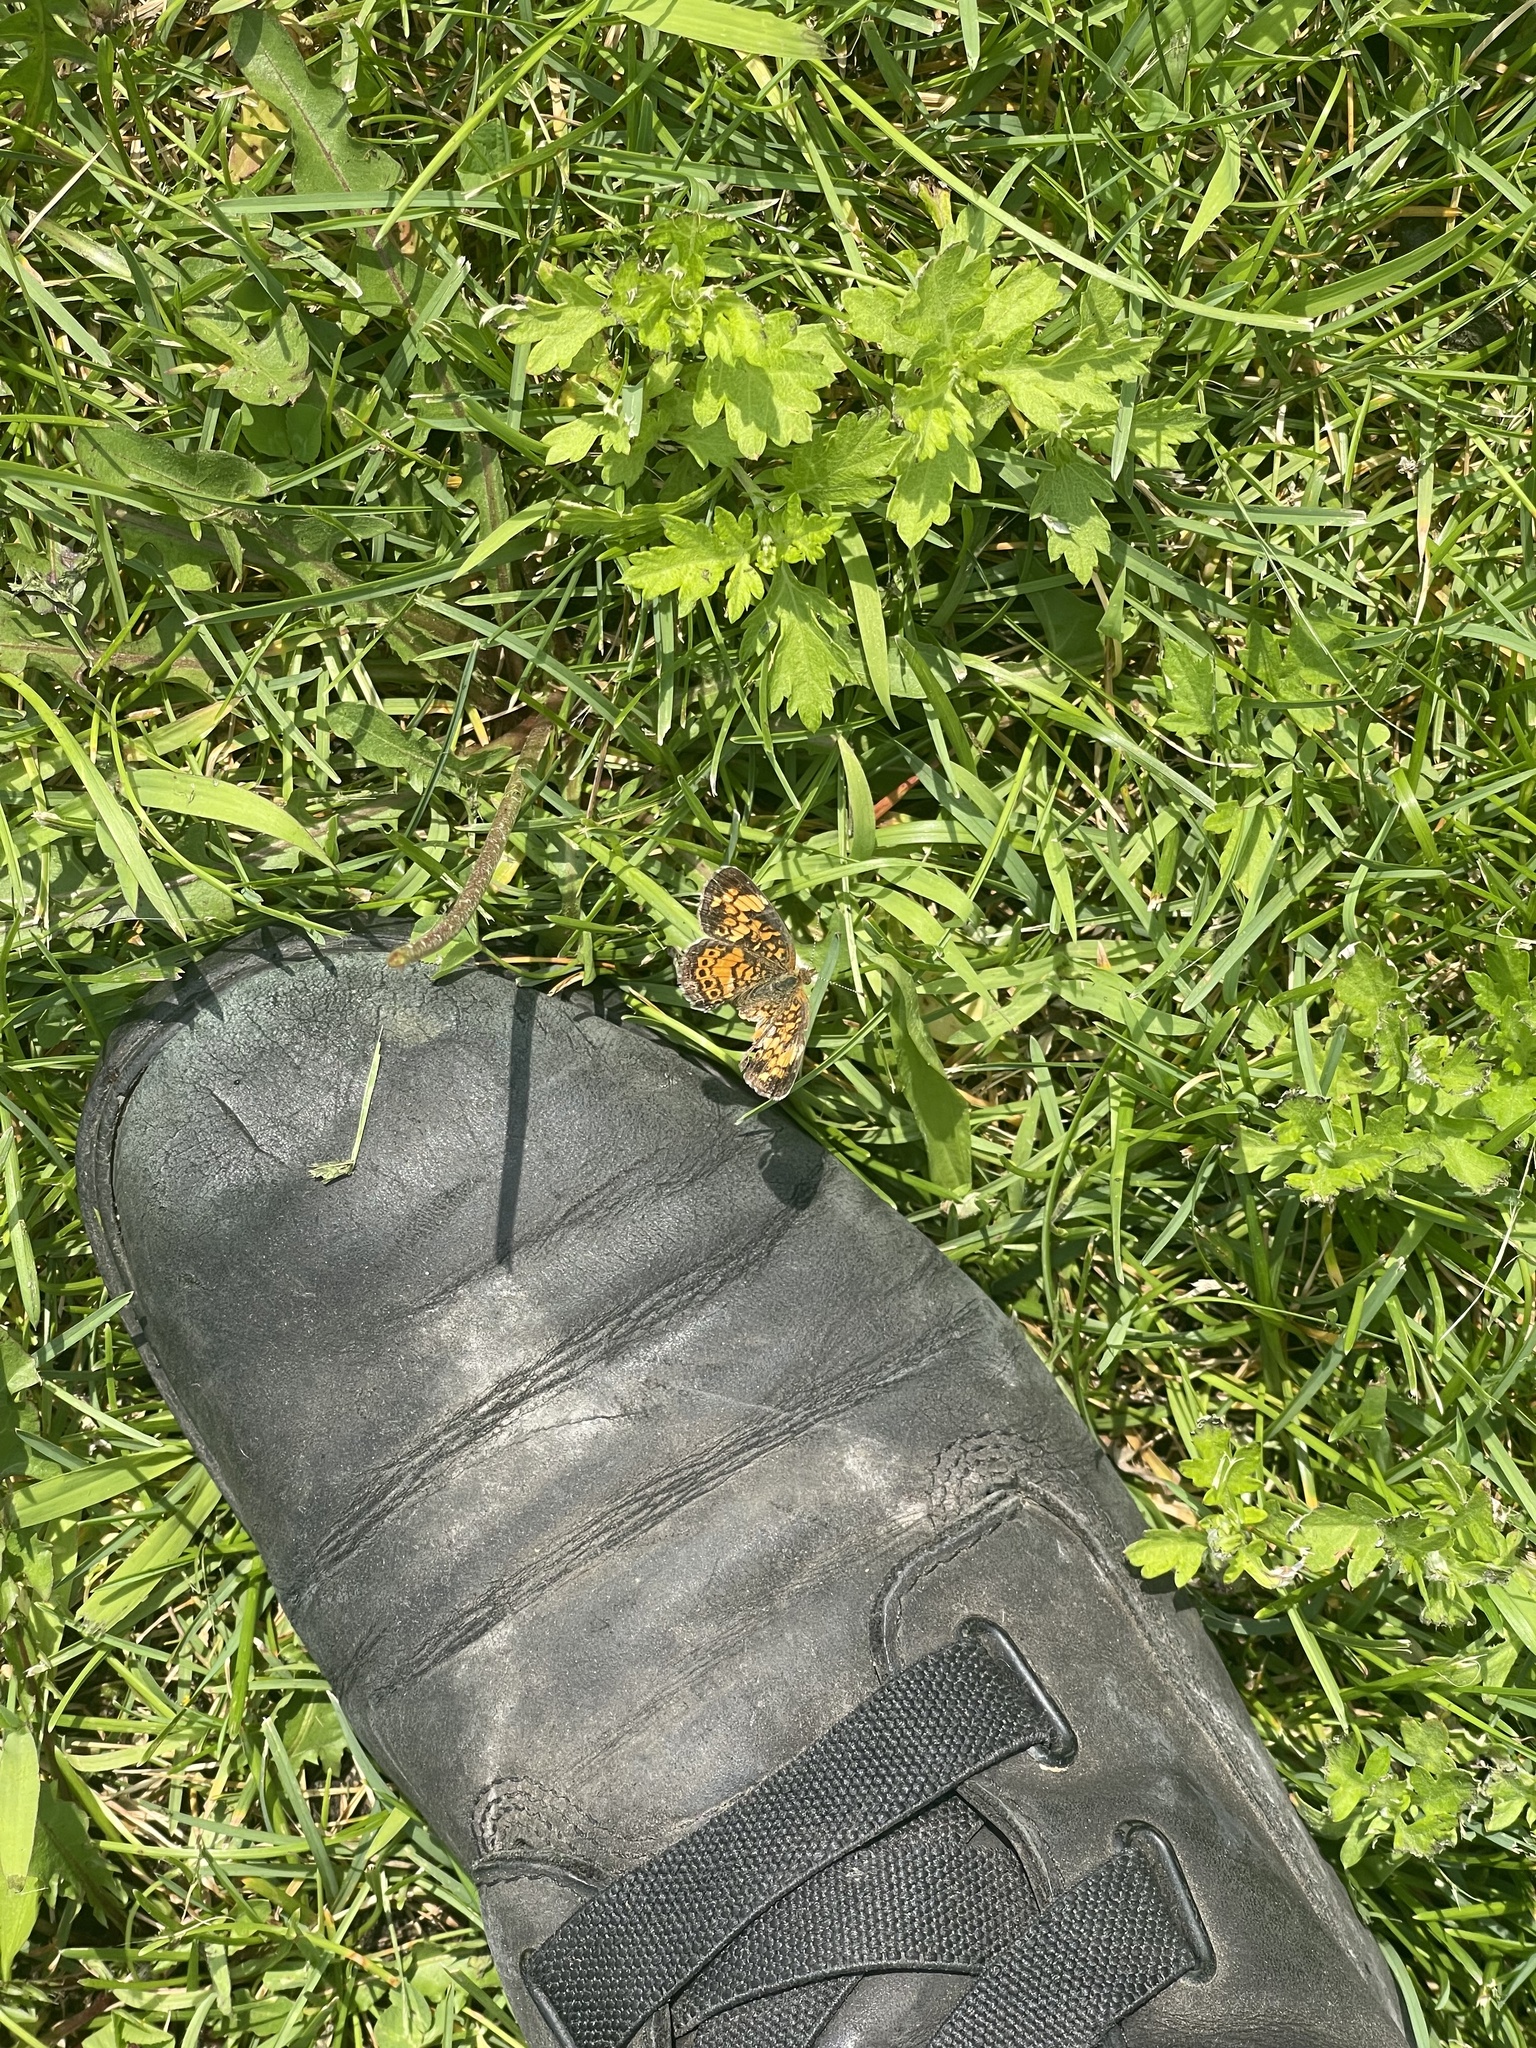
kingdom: Animalia
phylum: Arthropoda
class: Insecta
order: Lepidoptera
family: Nymphalidae
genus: Phyciodes
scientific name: Phyciodes tharos
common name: Pearl crescent
